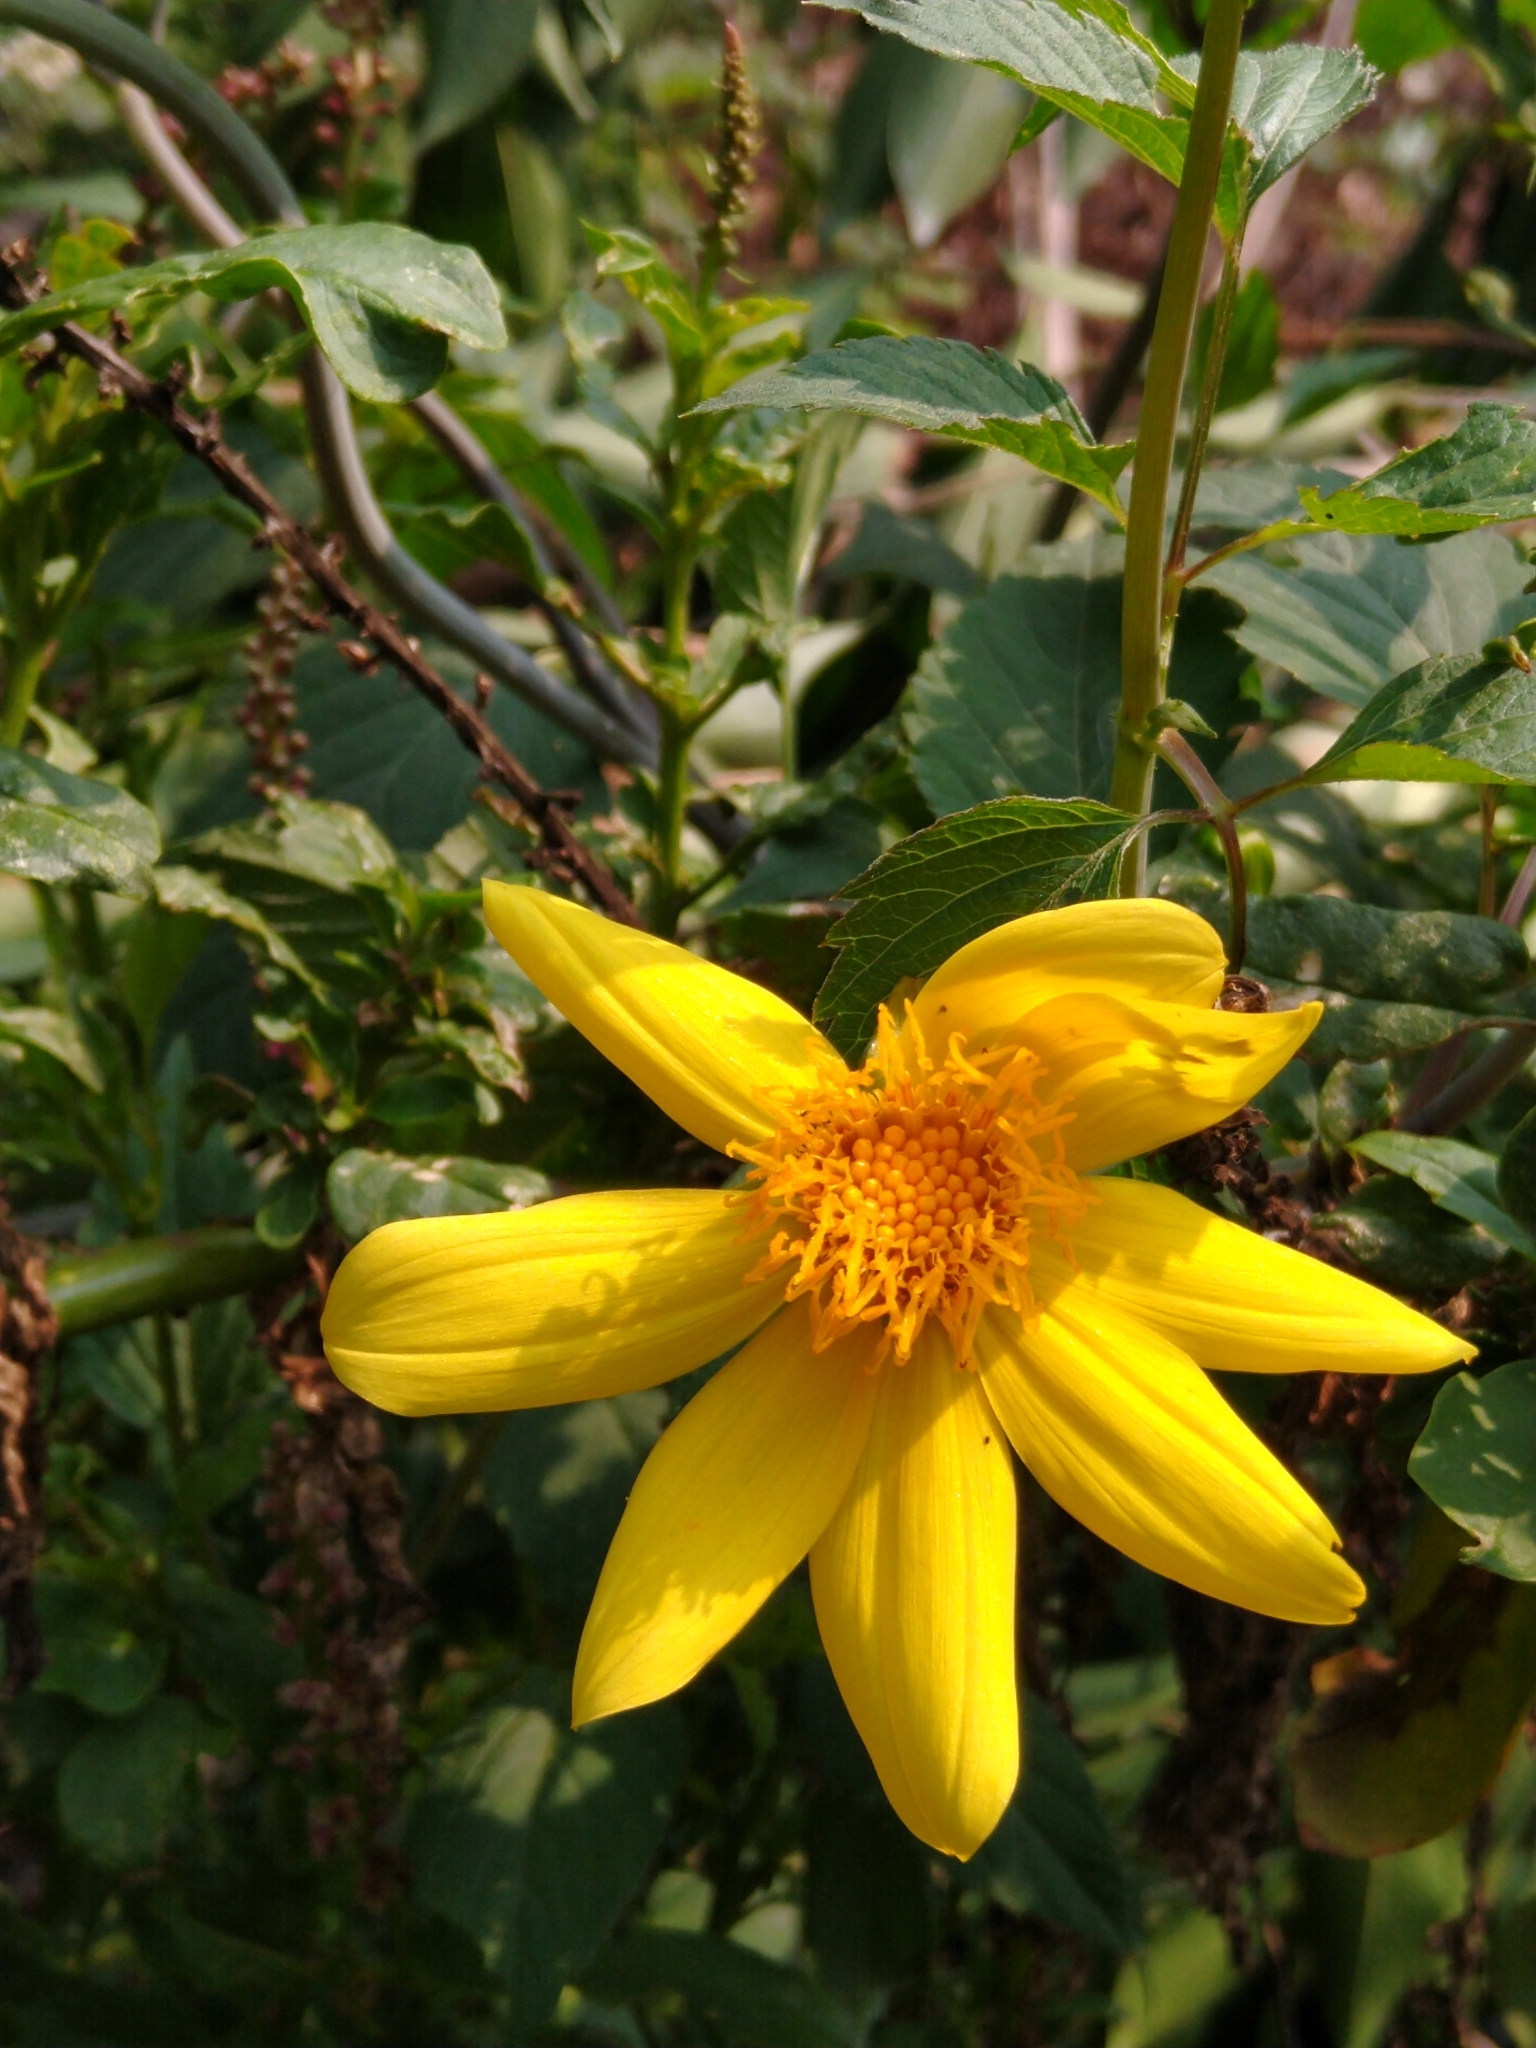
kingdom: Plantae
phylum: Tracheophyta
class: Magnoliopsida
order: Asterales
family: Asteraceae
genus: Dahlia
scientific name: Dahlia coccinea
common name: Red dahlia
